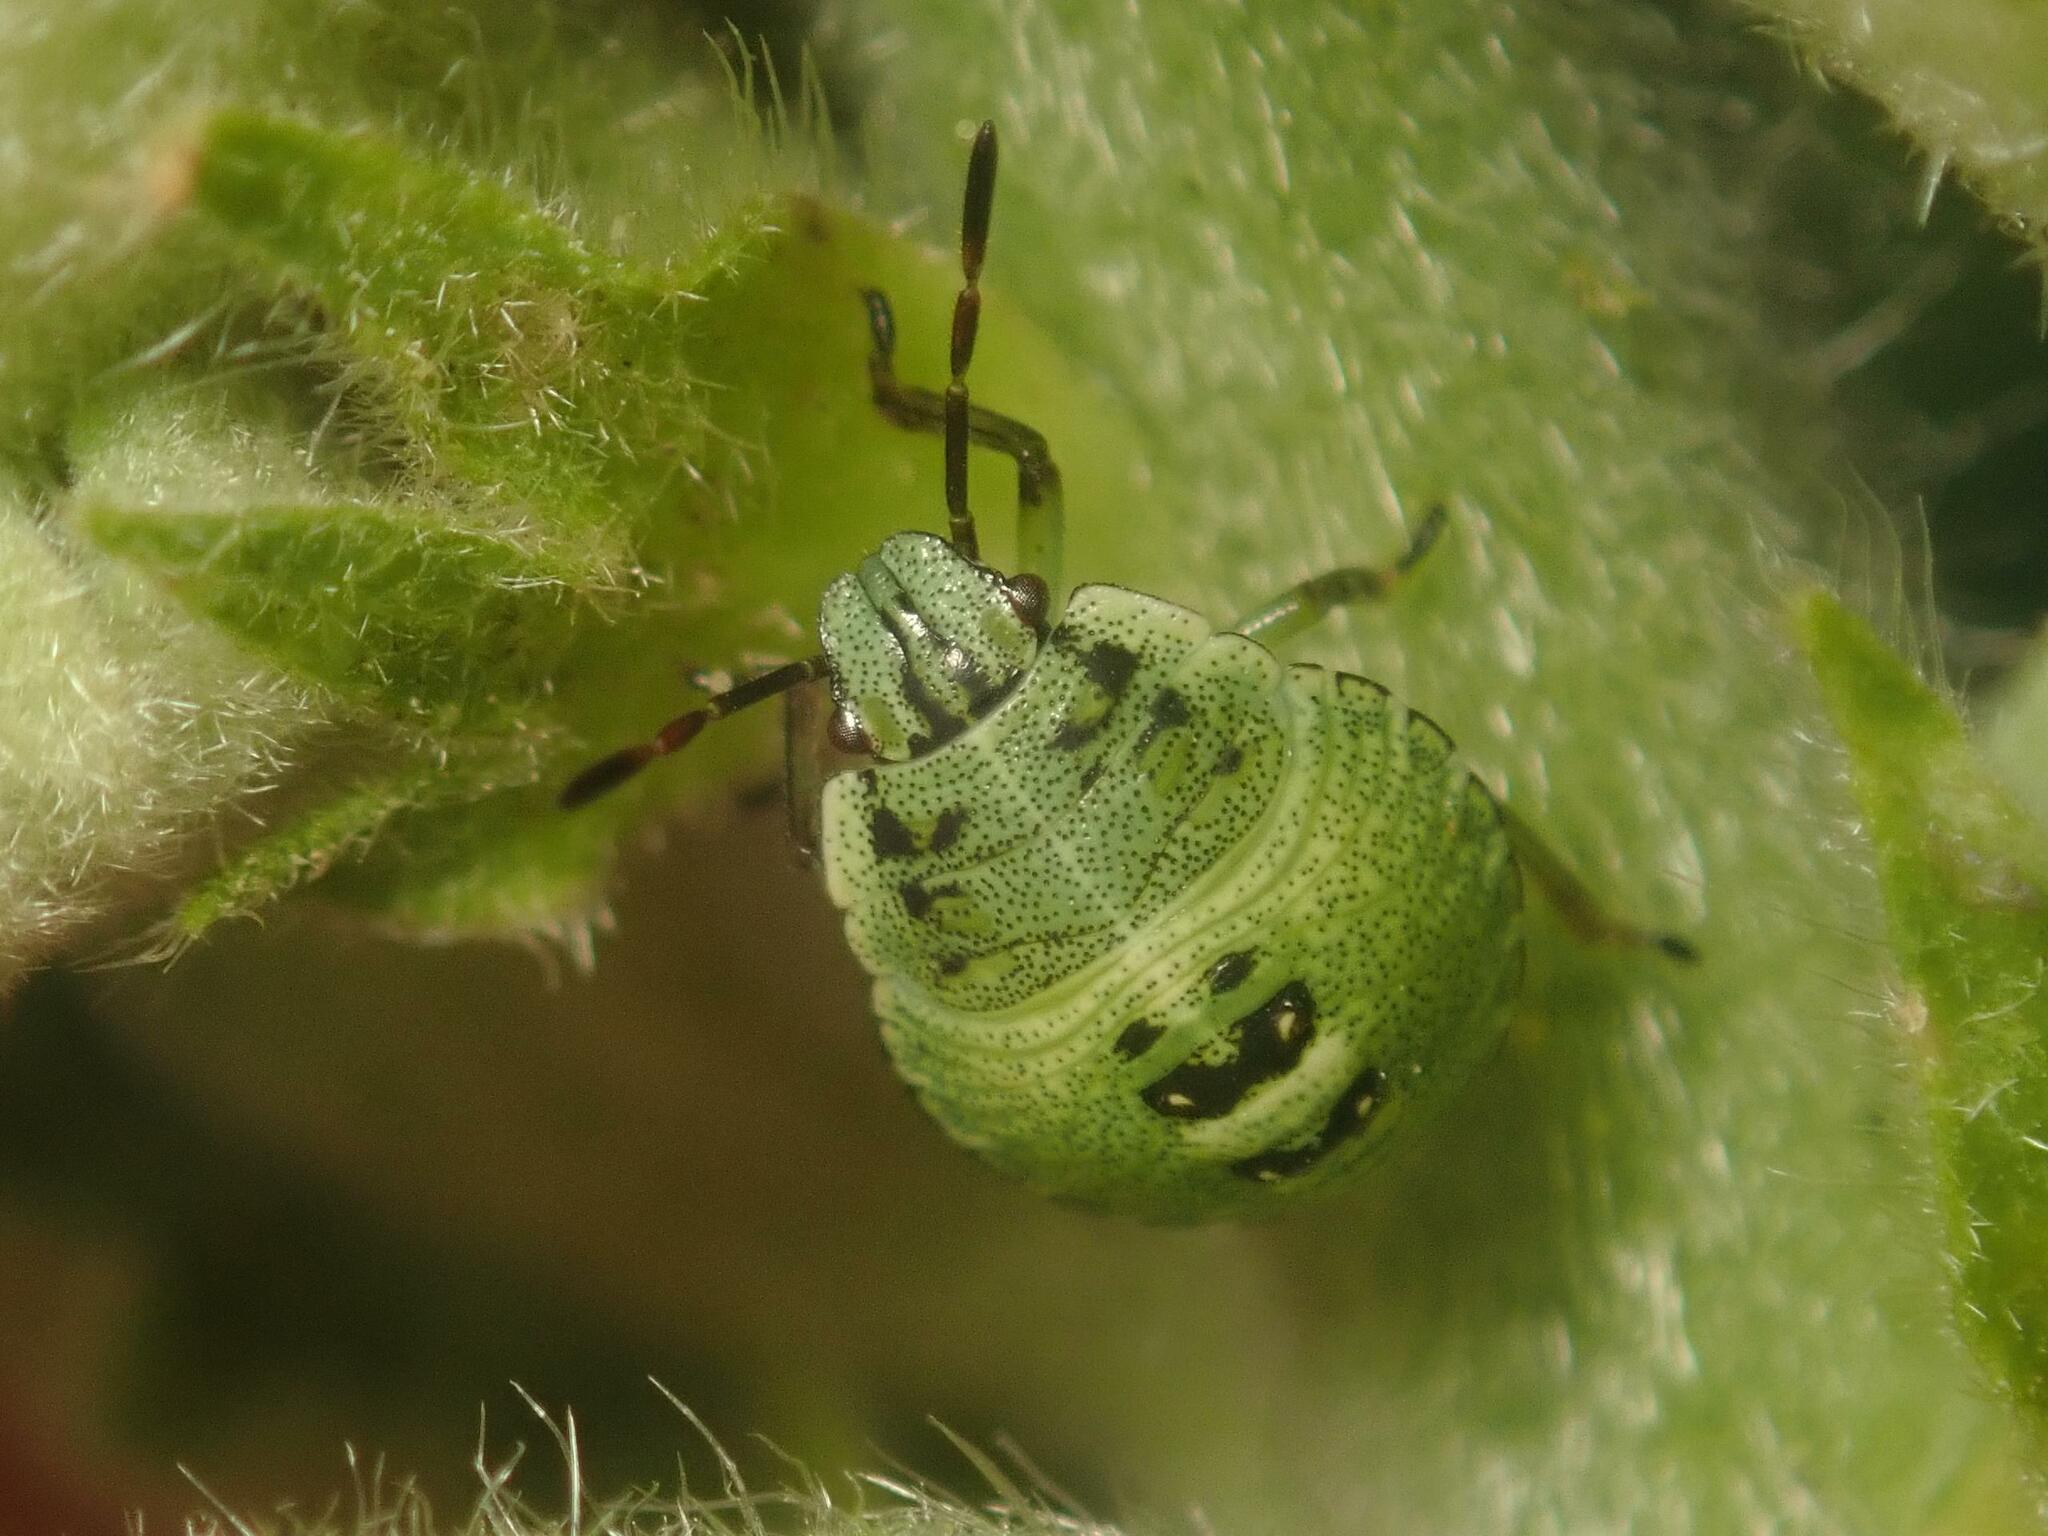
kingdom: Animalia
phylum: Arthropoda
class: Insecta
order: Hemiptera
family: Pentatomidae
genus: Palomena
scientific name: Palomena prasina
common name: Green shieldbug
